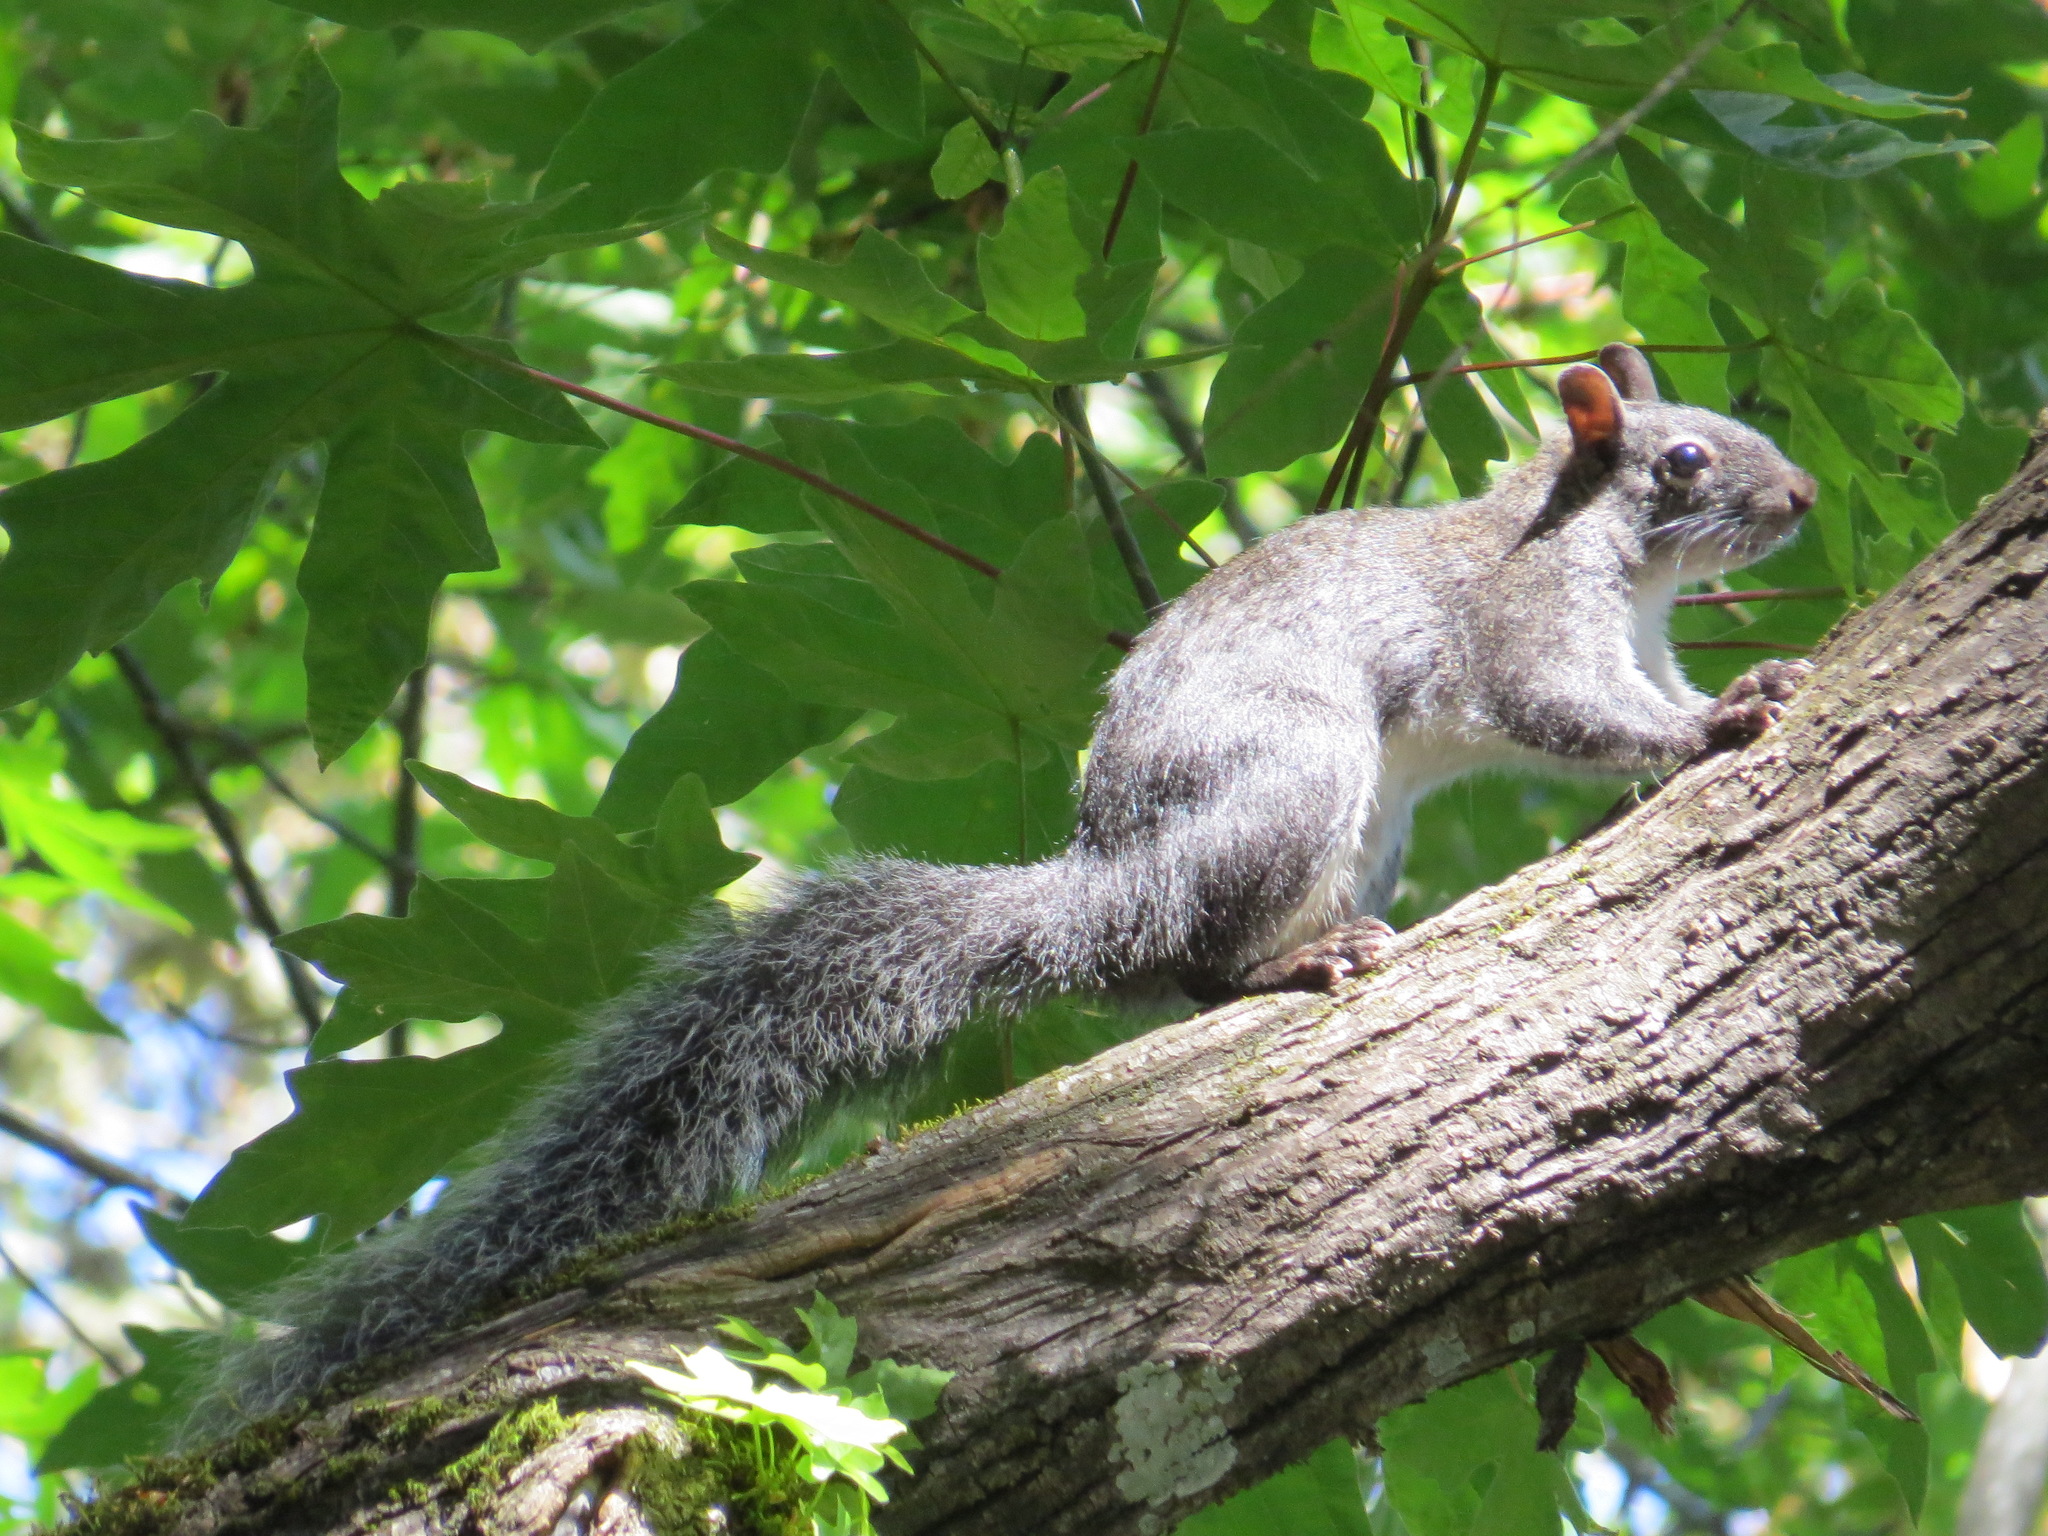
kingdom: Animalia
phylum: Chordata
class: Mammalia
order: Rodentia
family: Sciuridae
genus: Sciurus
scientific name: Sciurus griseus
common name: Western gray squirrel
